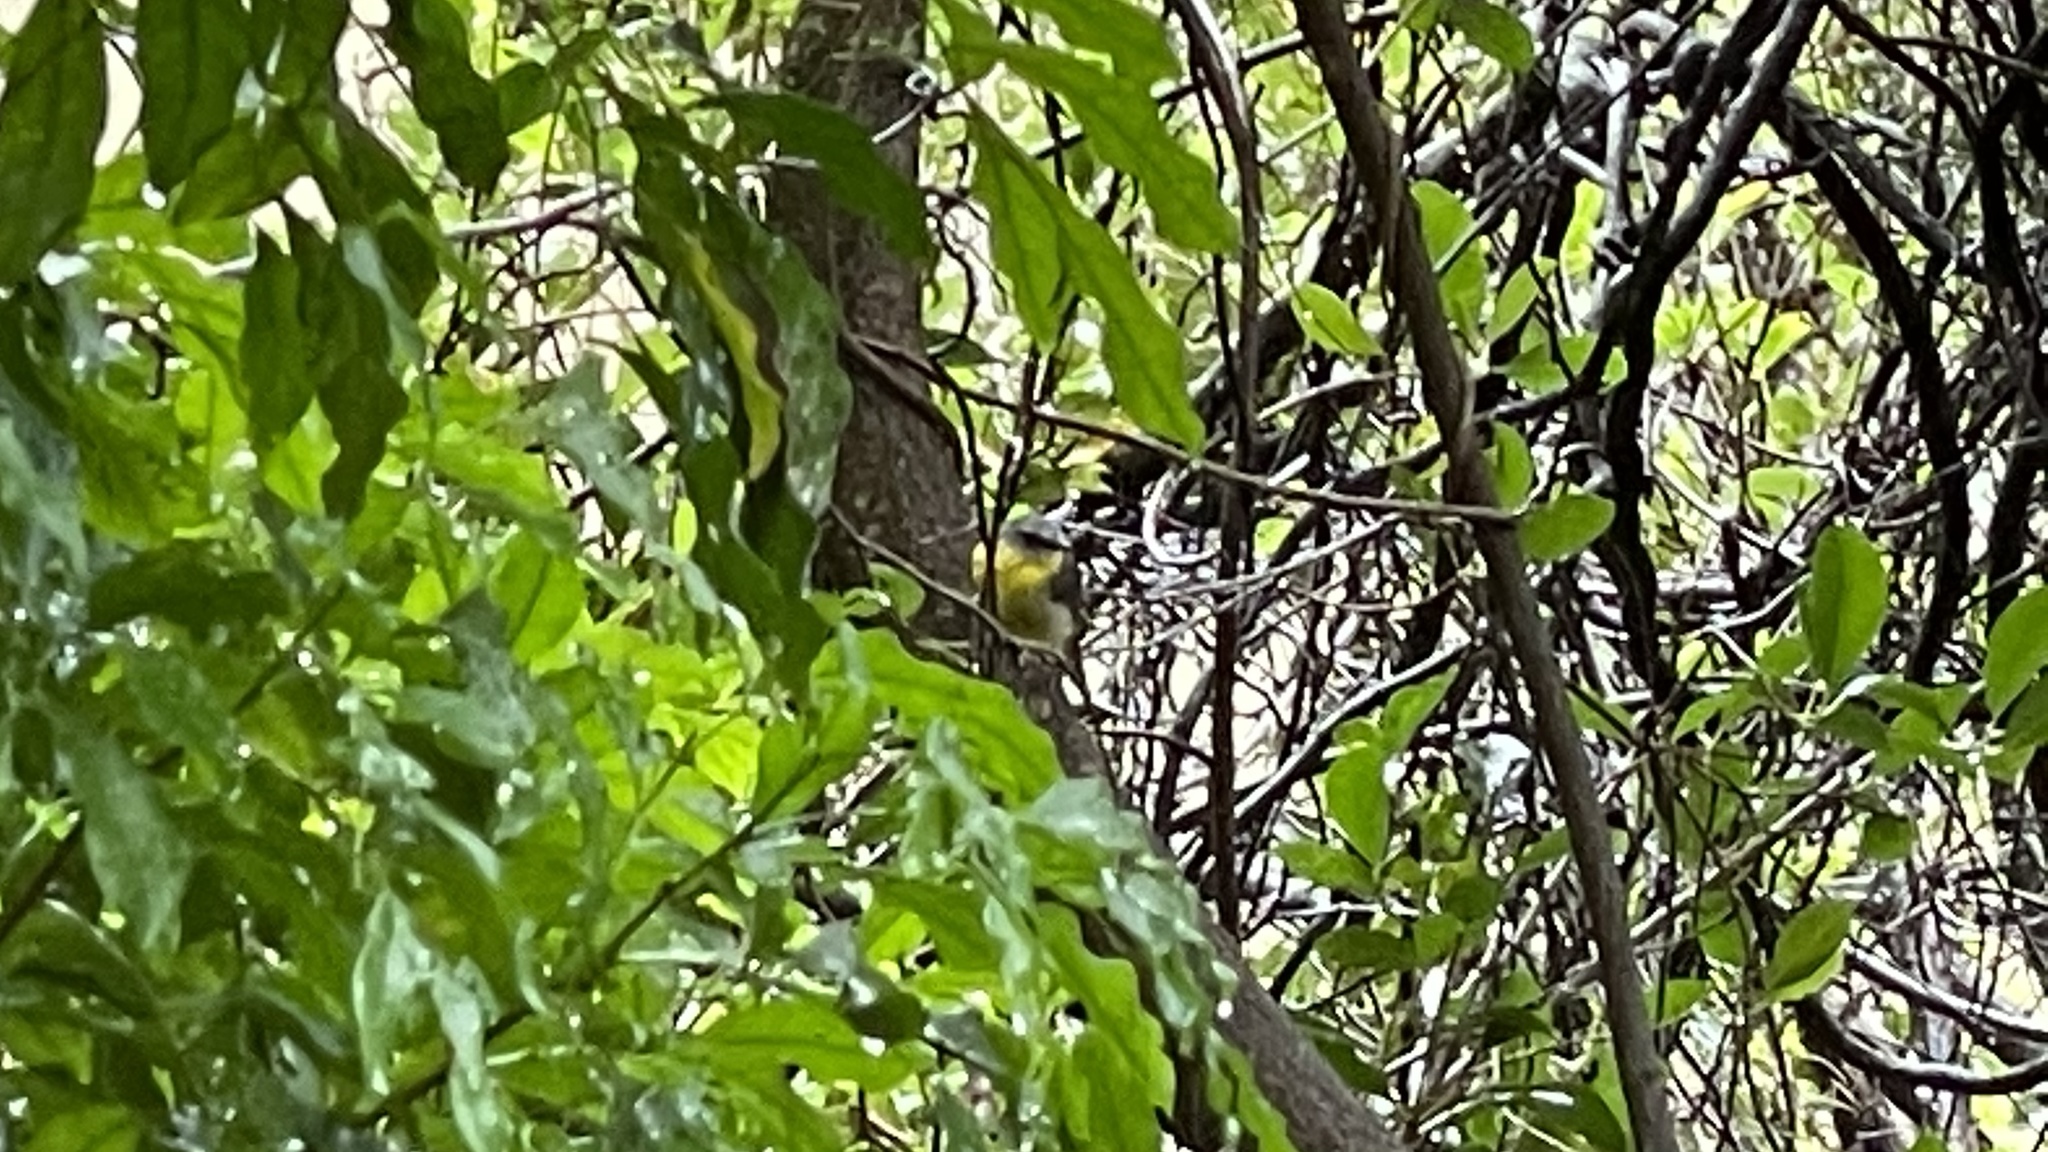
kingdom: Animalia
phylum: Chordata
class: Aves
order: Passeriformes
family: Petroicidae
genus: Eopsaltria
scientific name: Eopsaltria australis
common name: Eastern yellow robin
